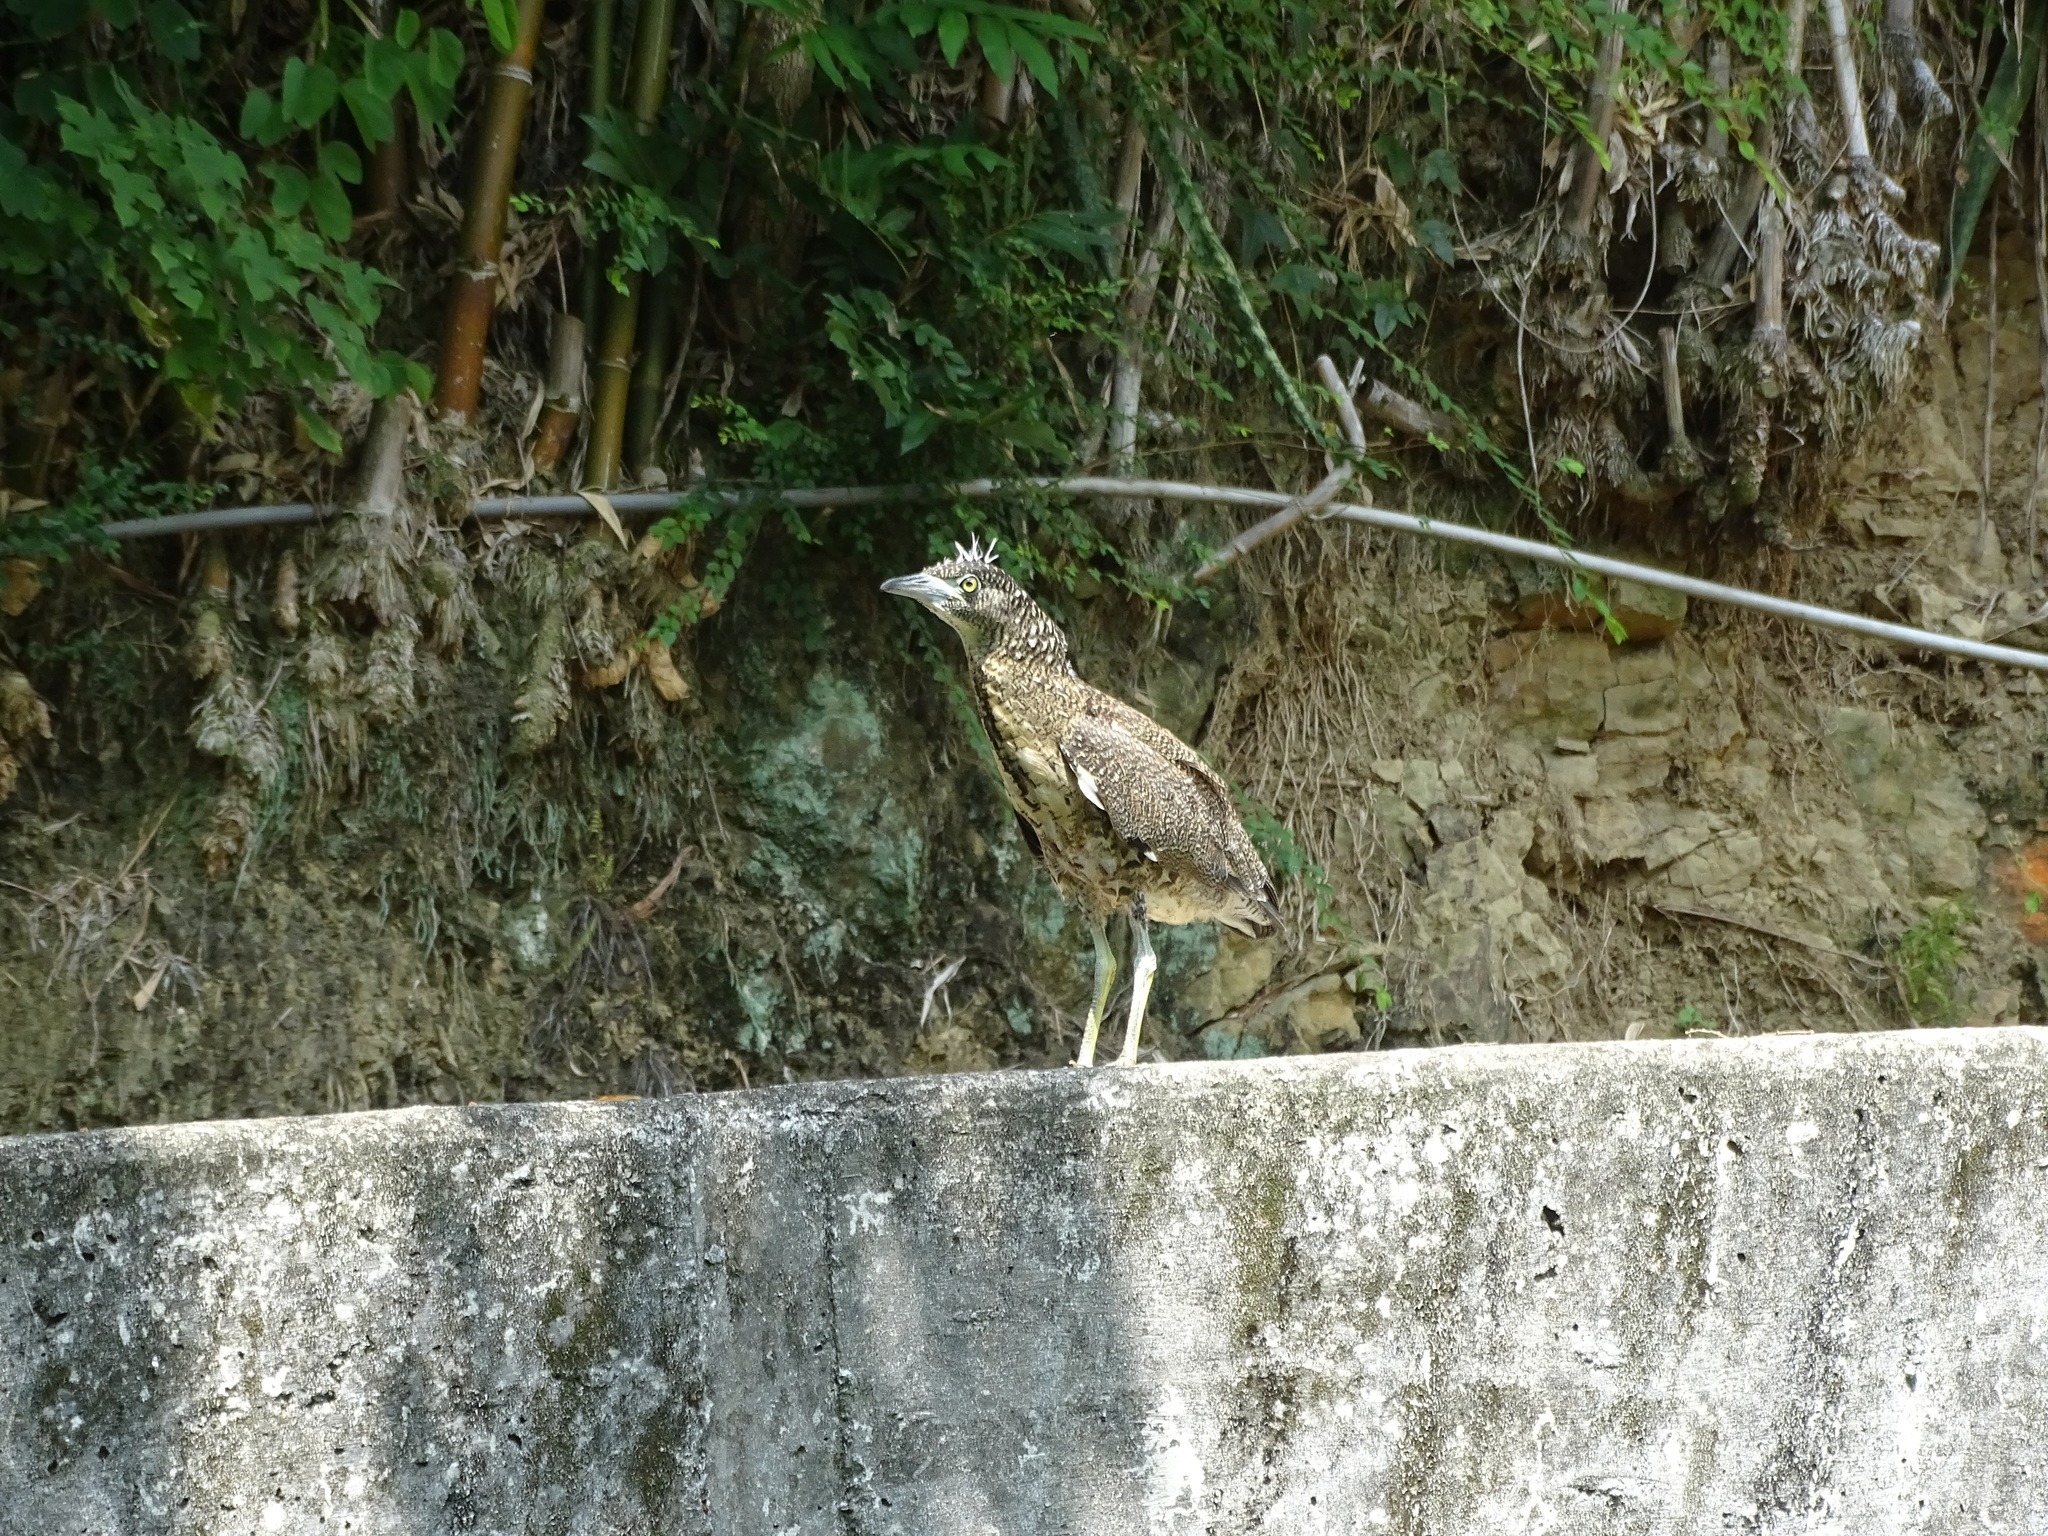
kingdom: Animalia
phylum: Chordata
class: Aves
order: Pelecaniformes
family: Ardeidae
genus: Gorsachius
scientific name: Gorsachius melanolophus
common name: Malayan night heron
